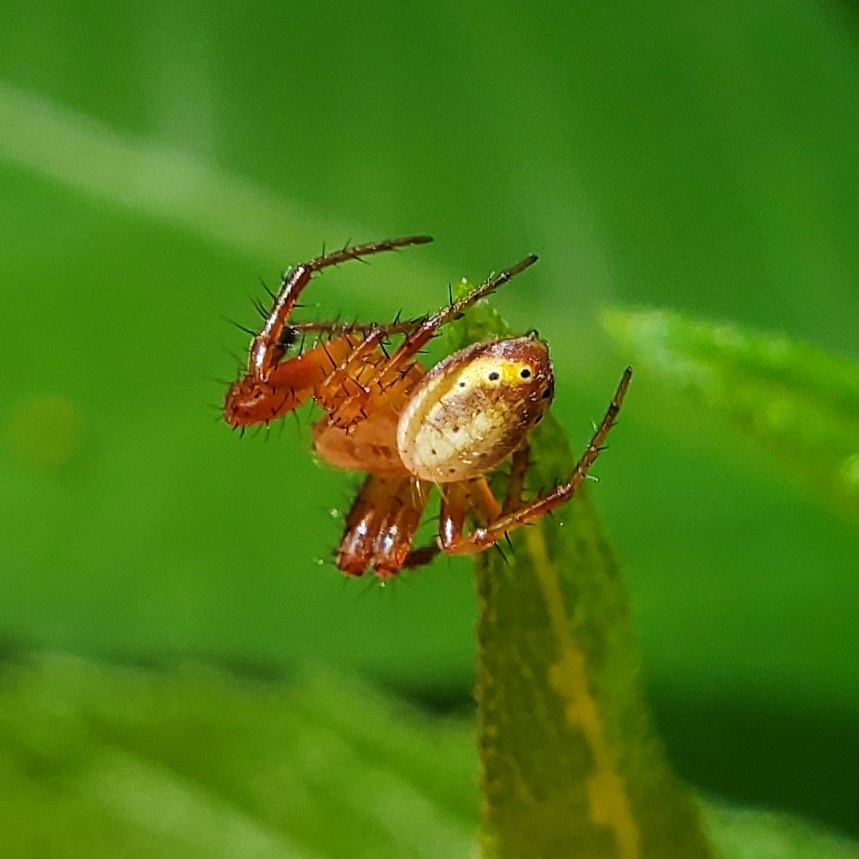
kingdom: Animalia
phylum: Arthropoda
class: Arachnida
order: Araneae
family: Araneidae
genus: Araniella
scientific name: Araniella displicata
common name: Sixspotted orb weaver
